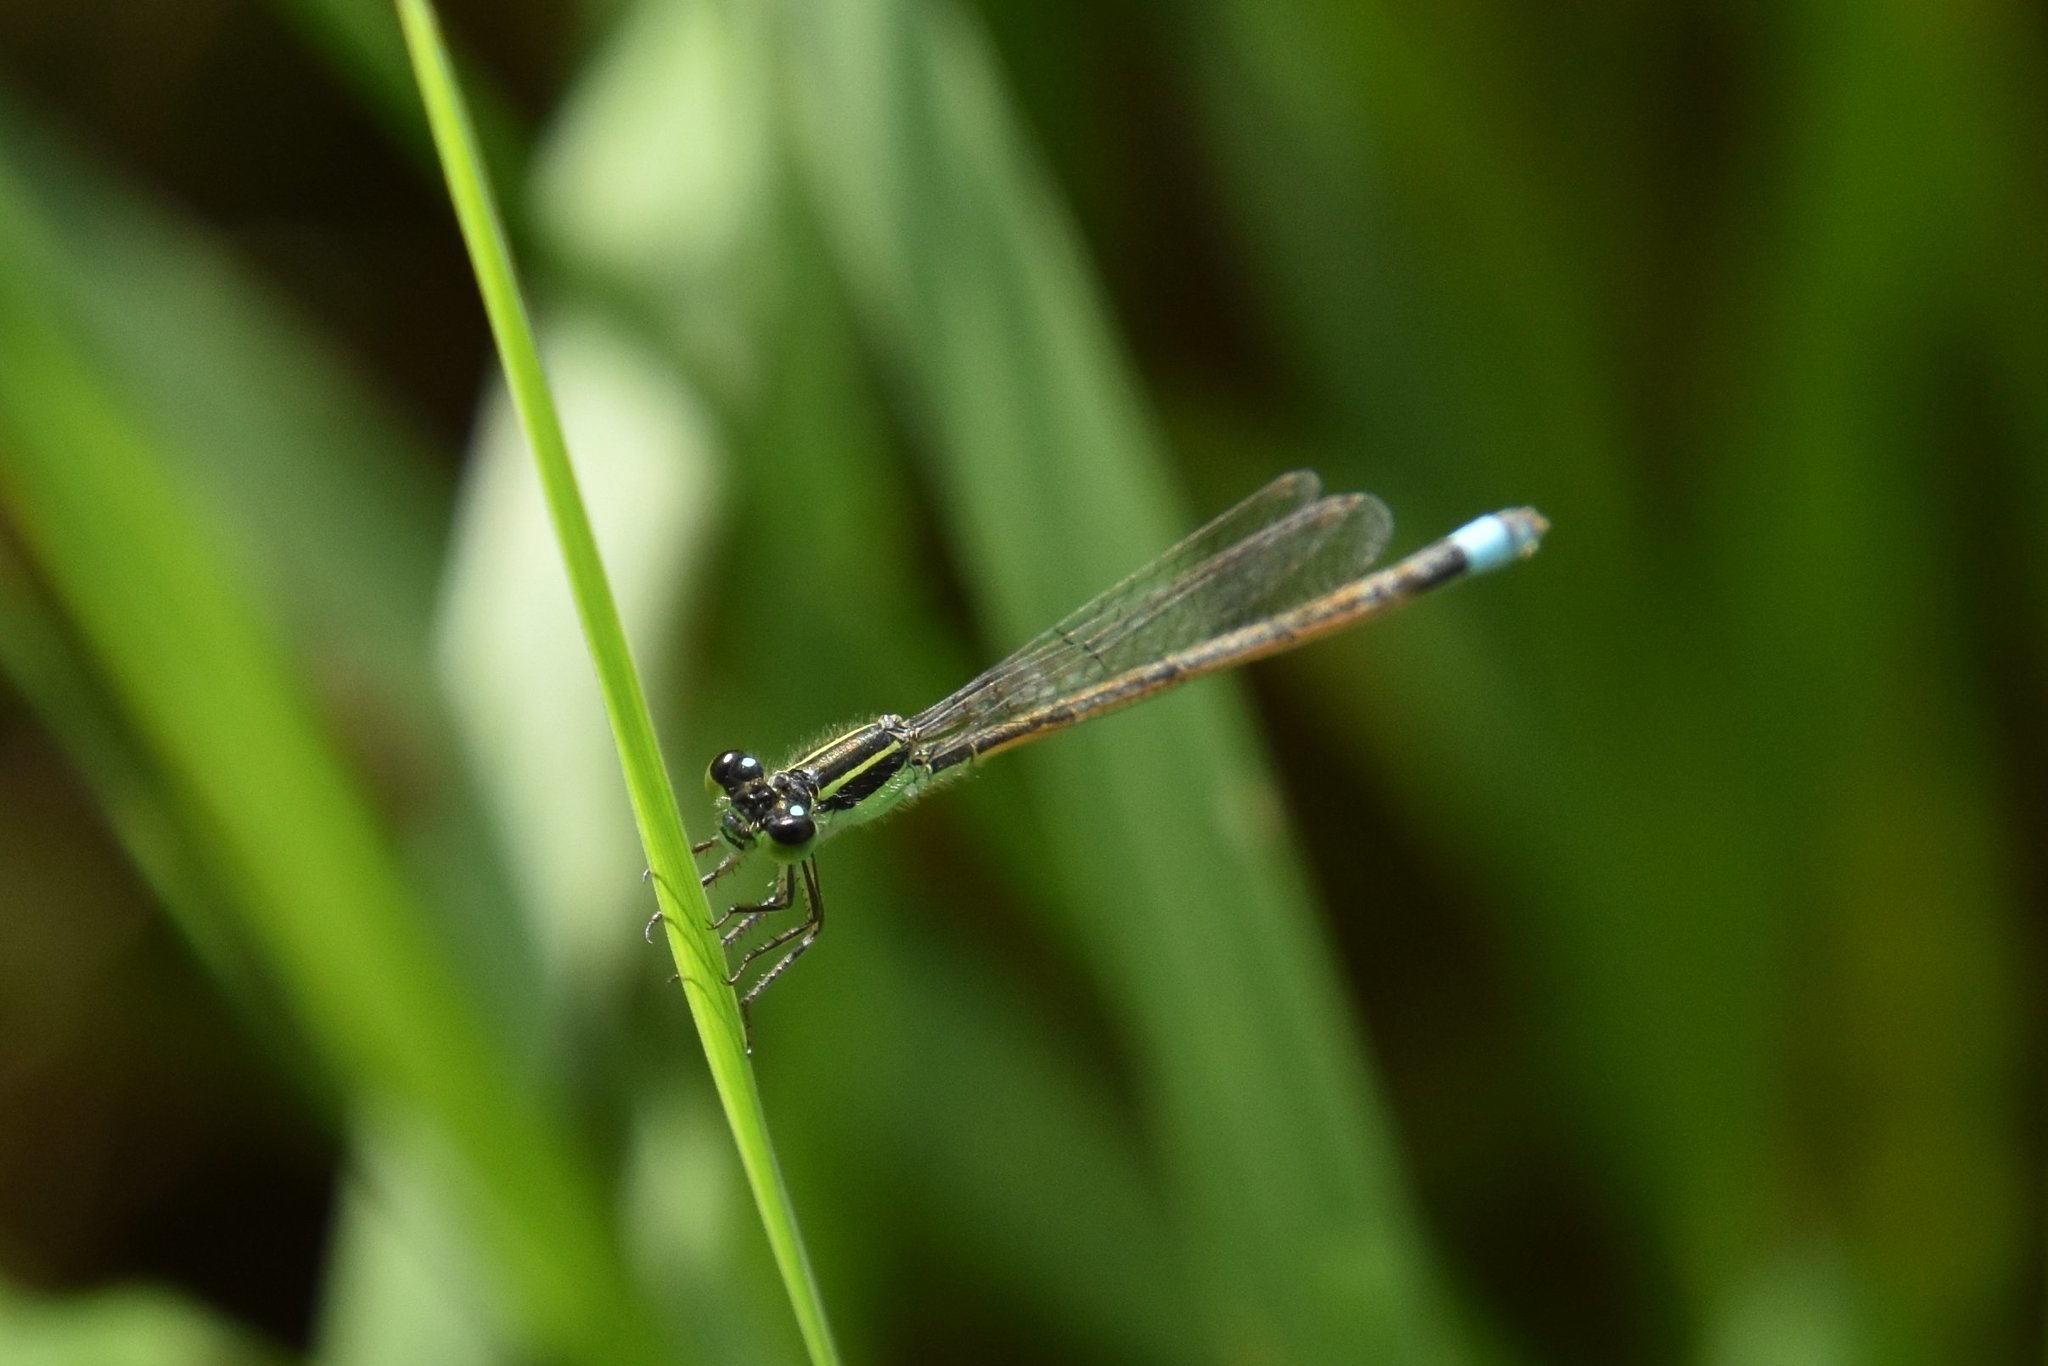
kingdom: Animalia
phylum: Arthropoda
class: Insecta
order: Odonata
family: Coenagrionidae
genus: Ischnura
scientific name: Ischnura ramburii
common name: Rambur's forktail
